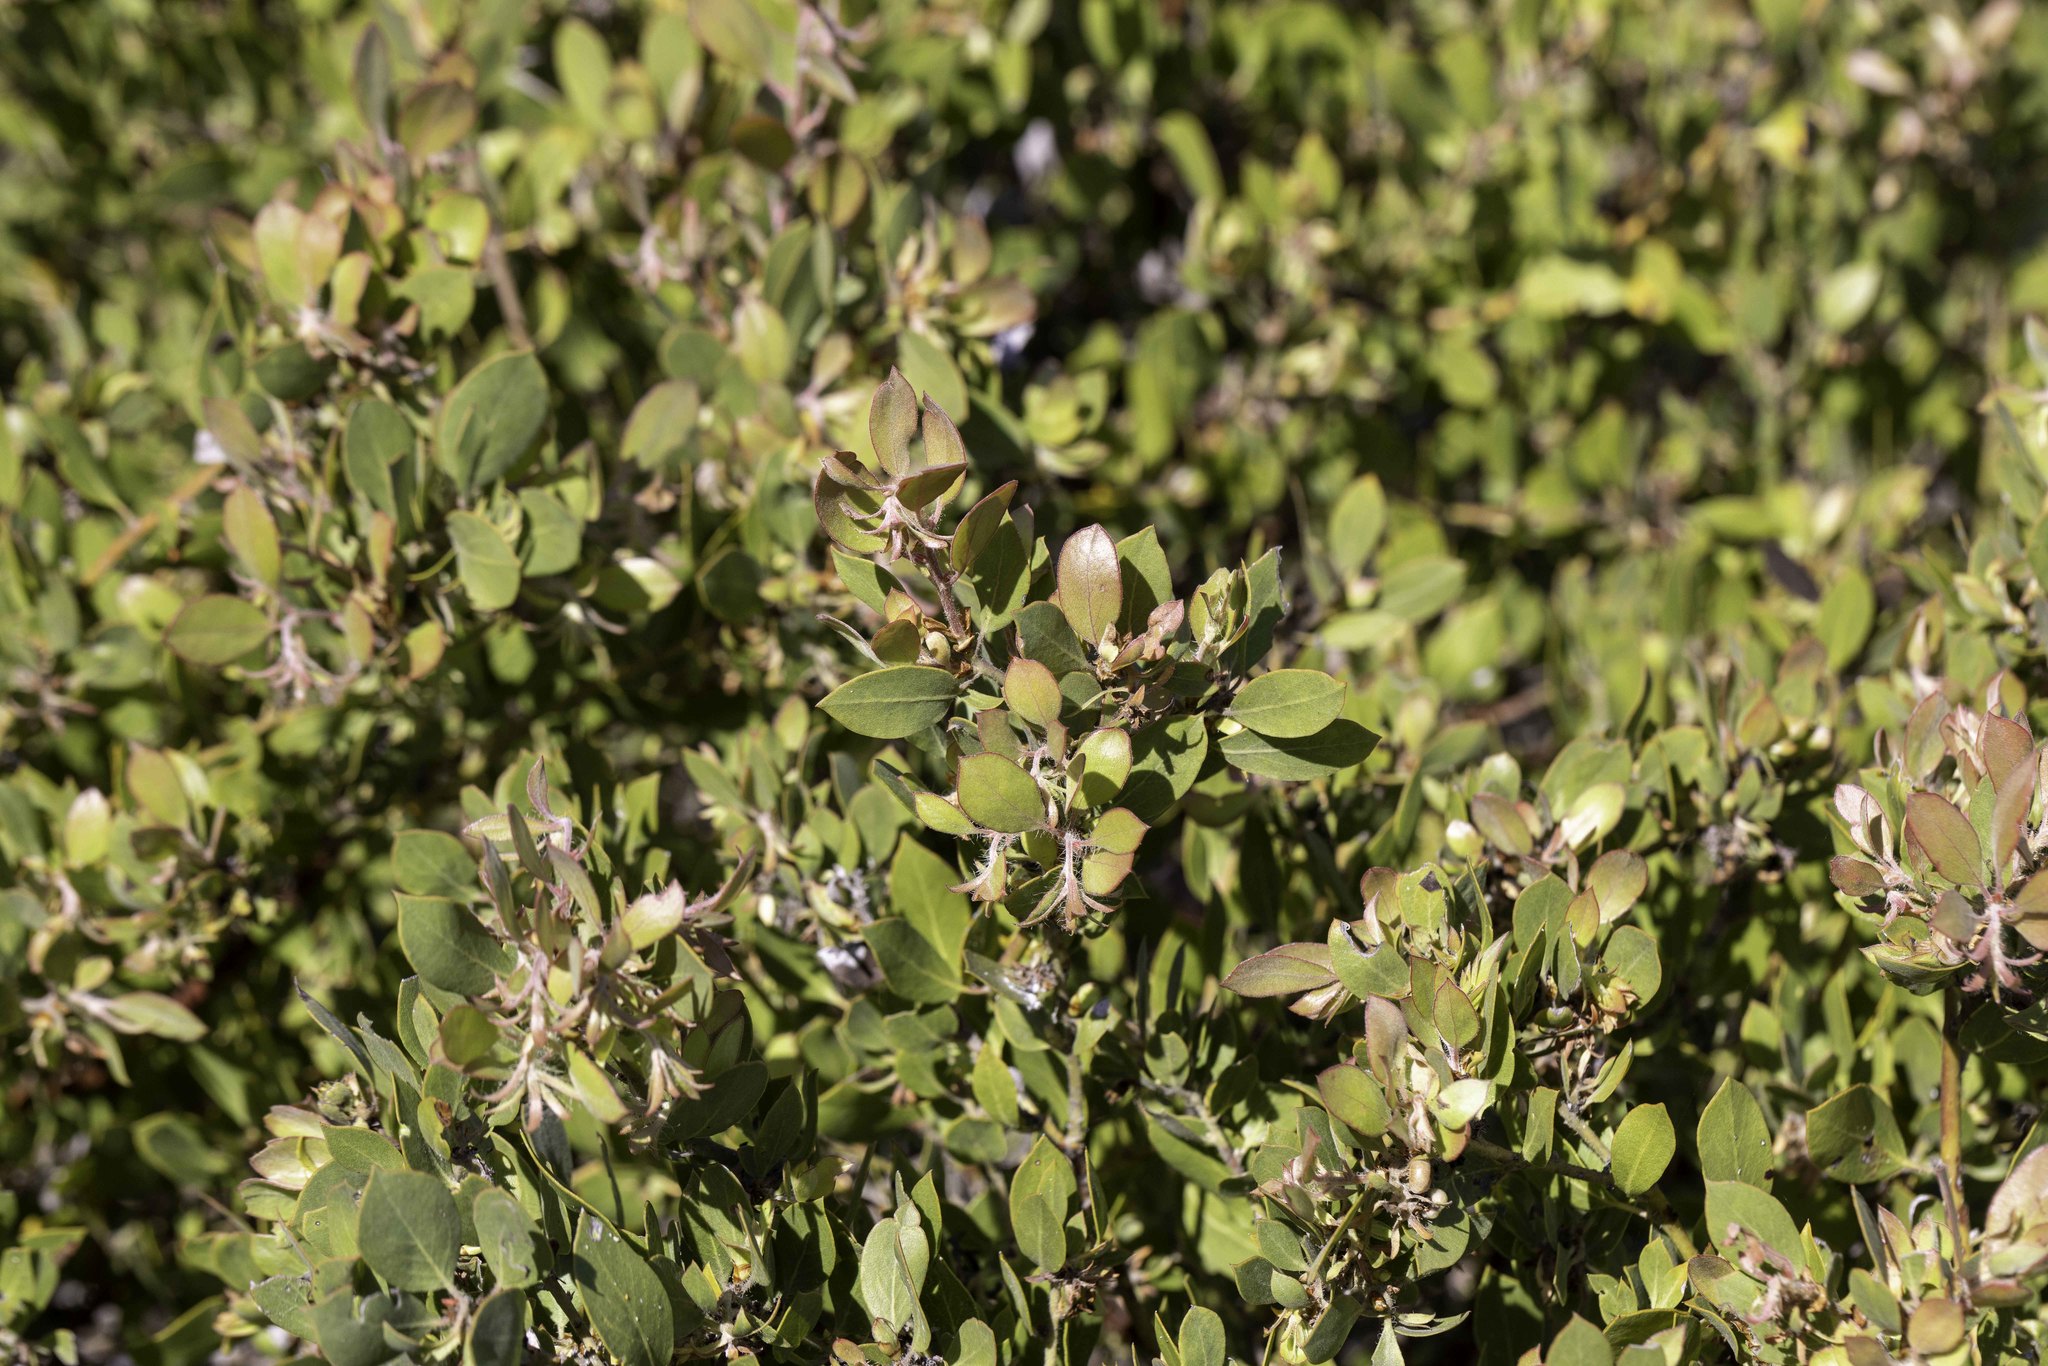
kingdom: Plantae
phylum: Tracheophyta
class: Magnoliopsida
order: Ericales
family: Ericaceae
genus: Arctostaphylos
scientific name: Arctostaphylos pilosula
